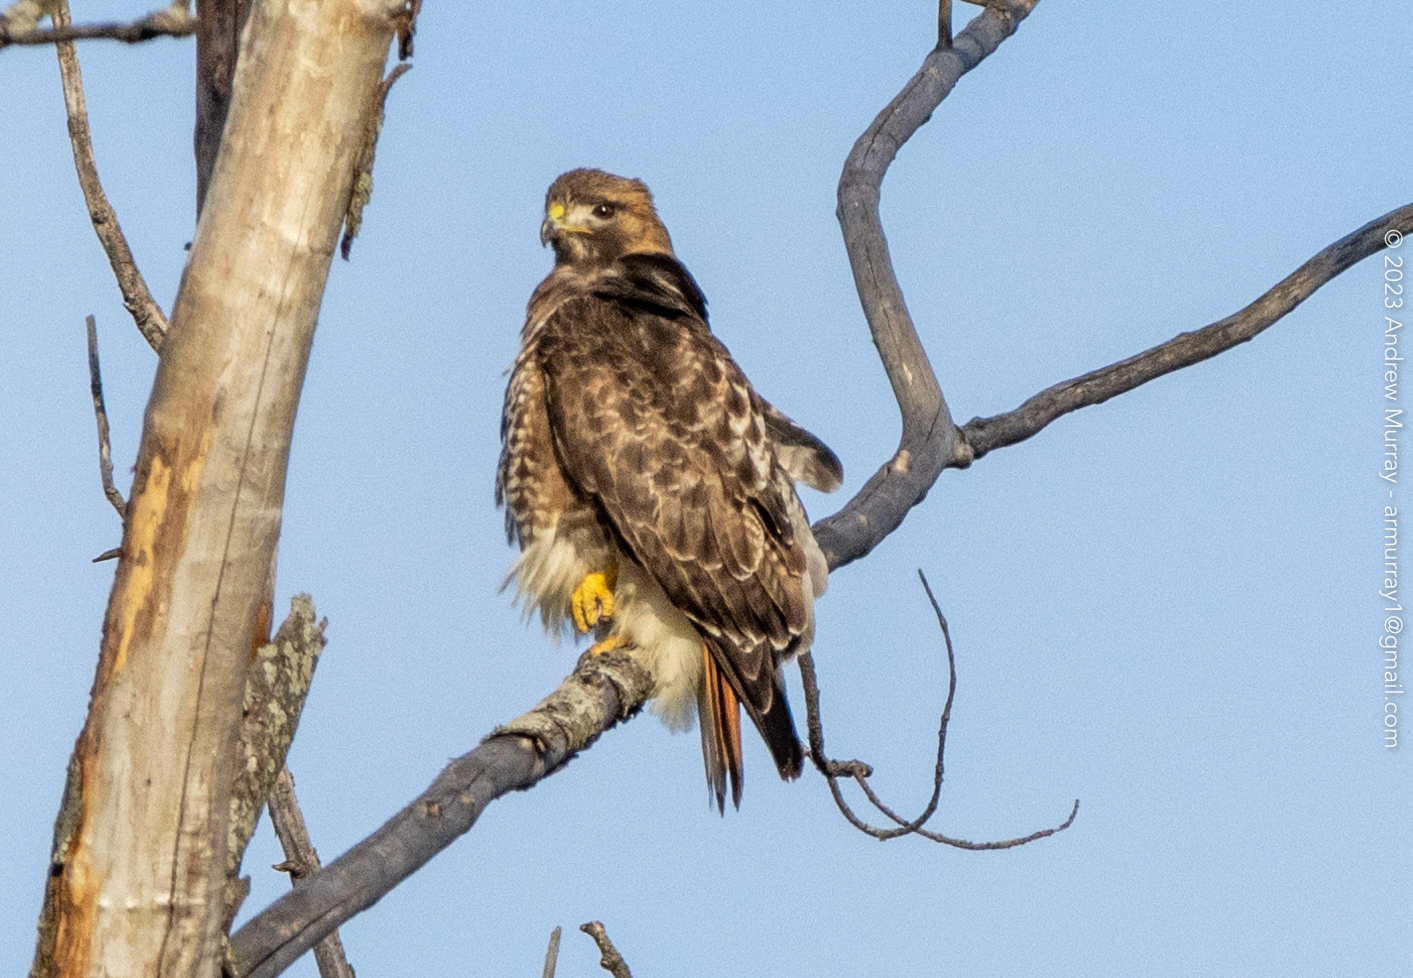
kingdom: Animalia
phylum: Chordata
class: Aves
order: Accipitriformes
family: Accipitridae
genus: Buteo
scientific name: Buteo jamaicensis
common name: Red-tailed hawk
